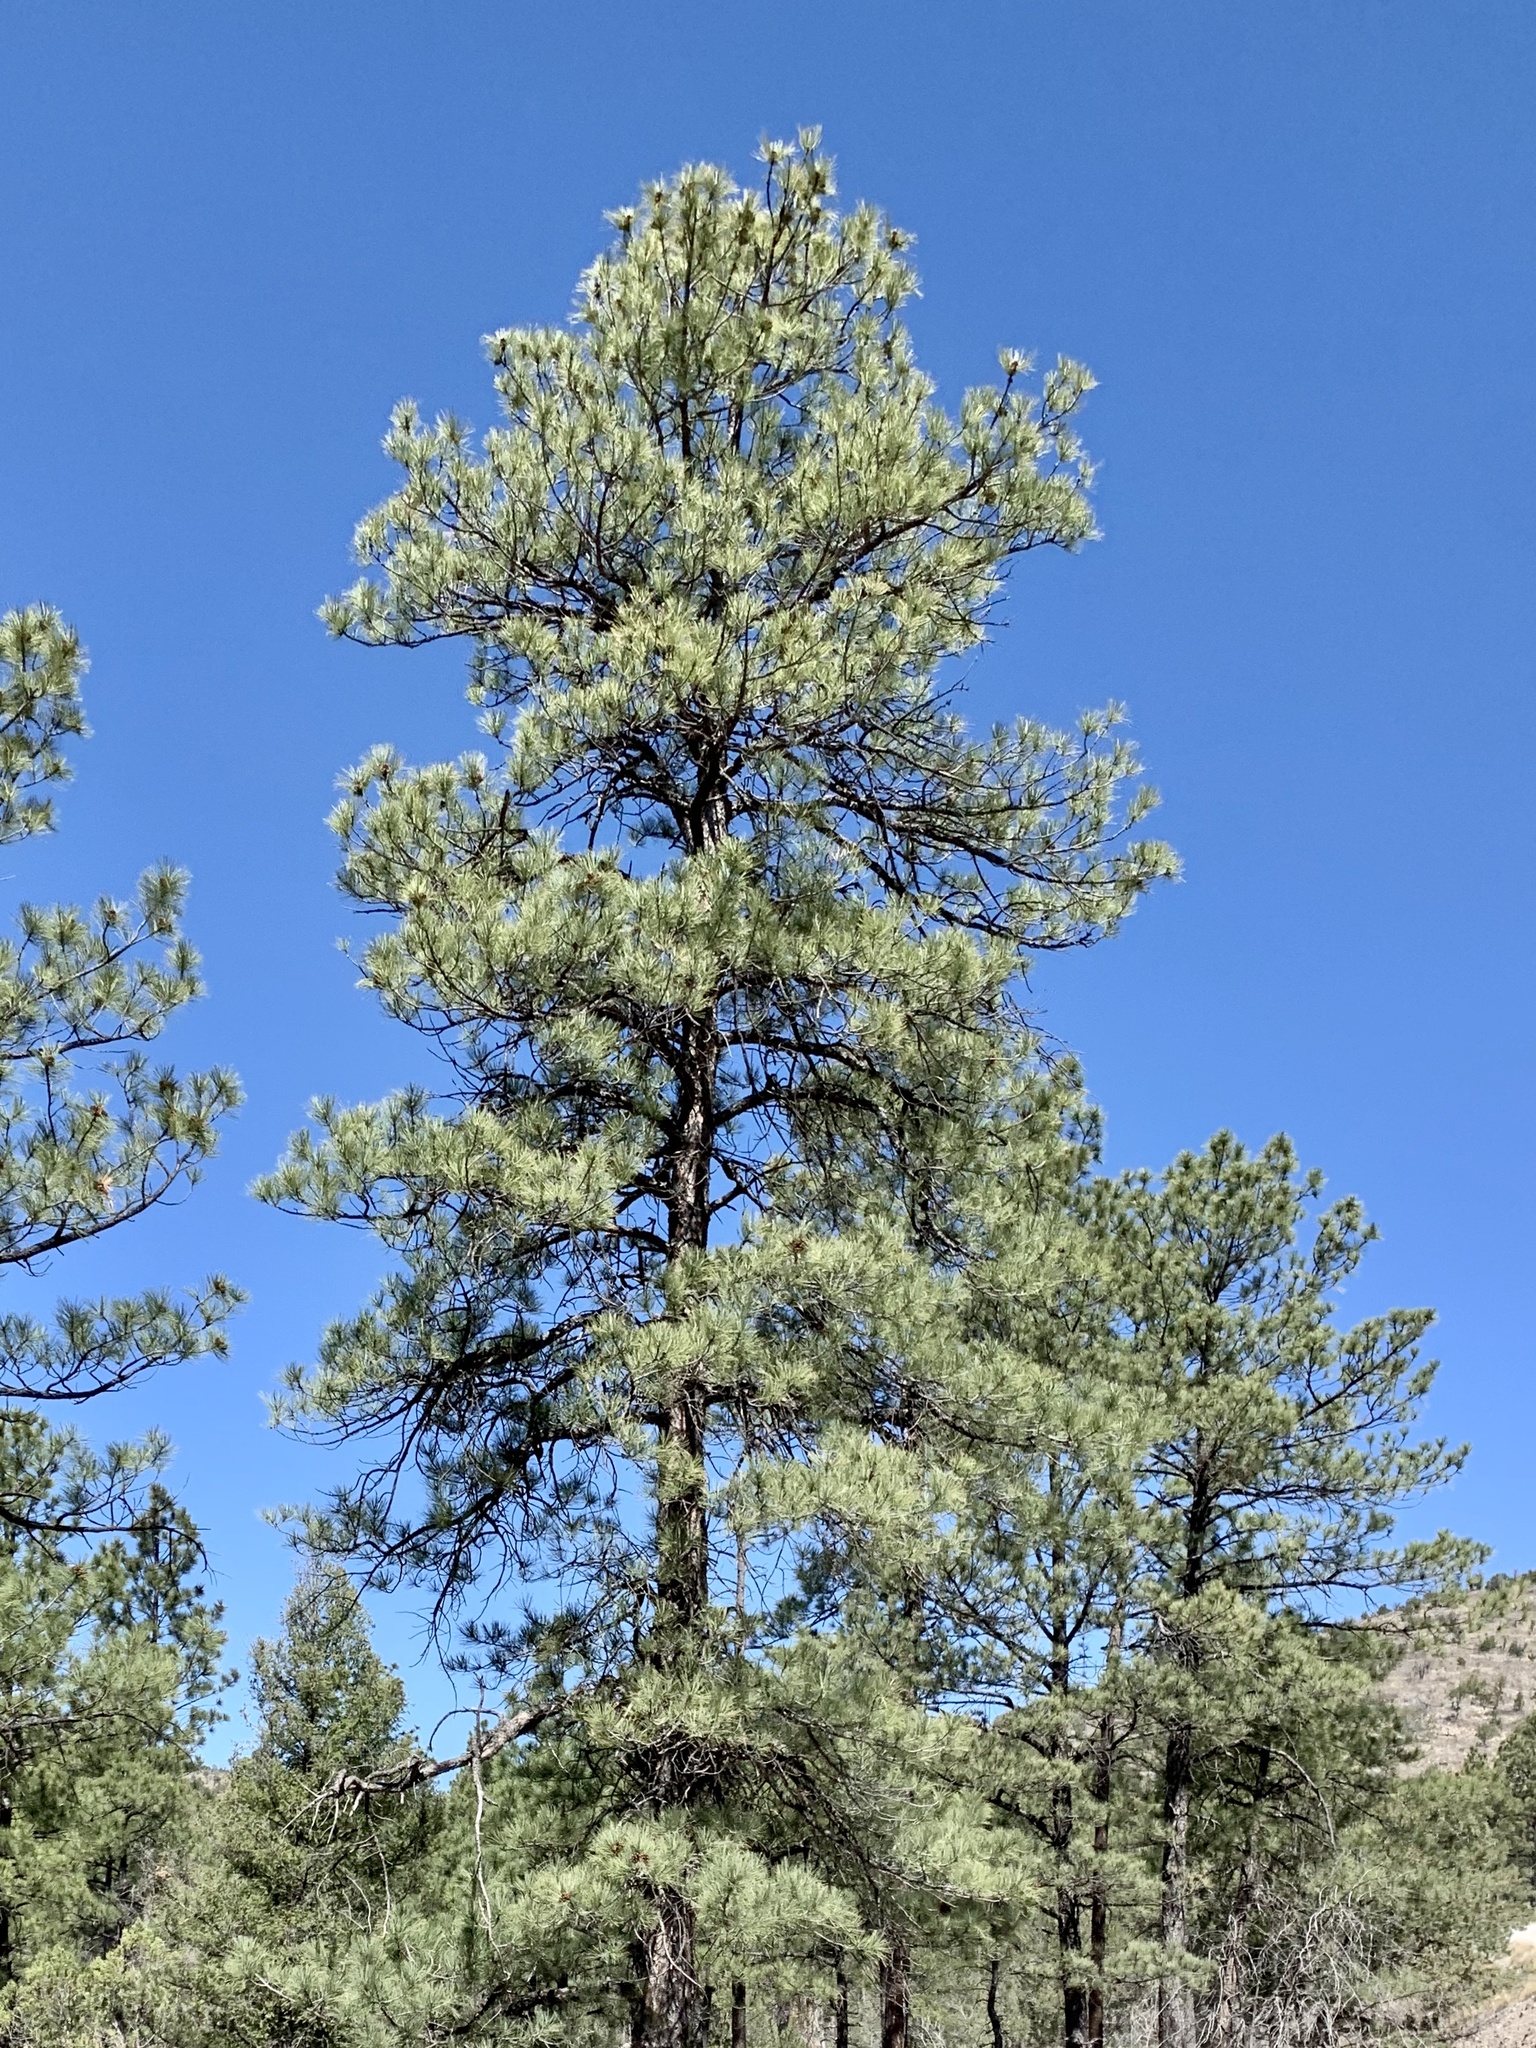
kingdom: Plantae
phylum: Tracheophyta
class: Pinopsida
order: Pinales
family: Pinaceae
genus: Pinus
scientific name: Pinus ponderosa
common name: Western yellow-pine
